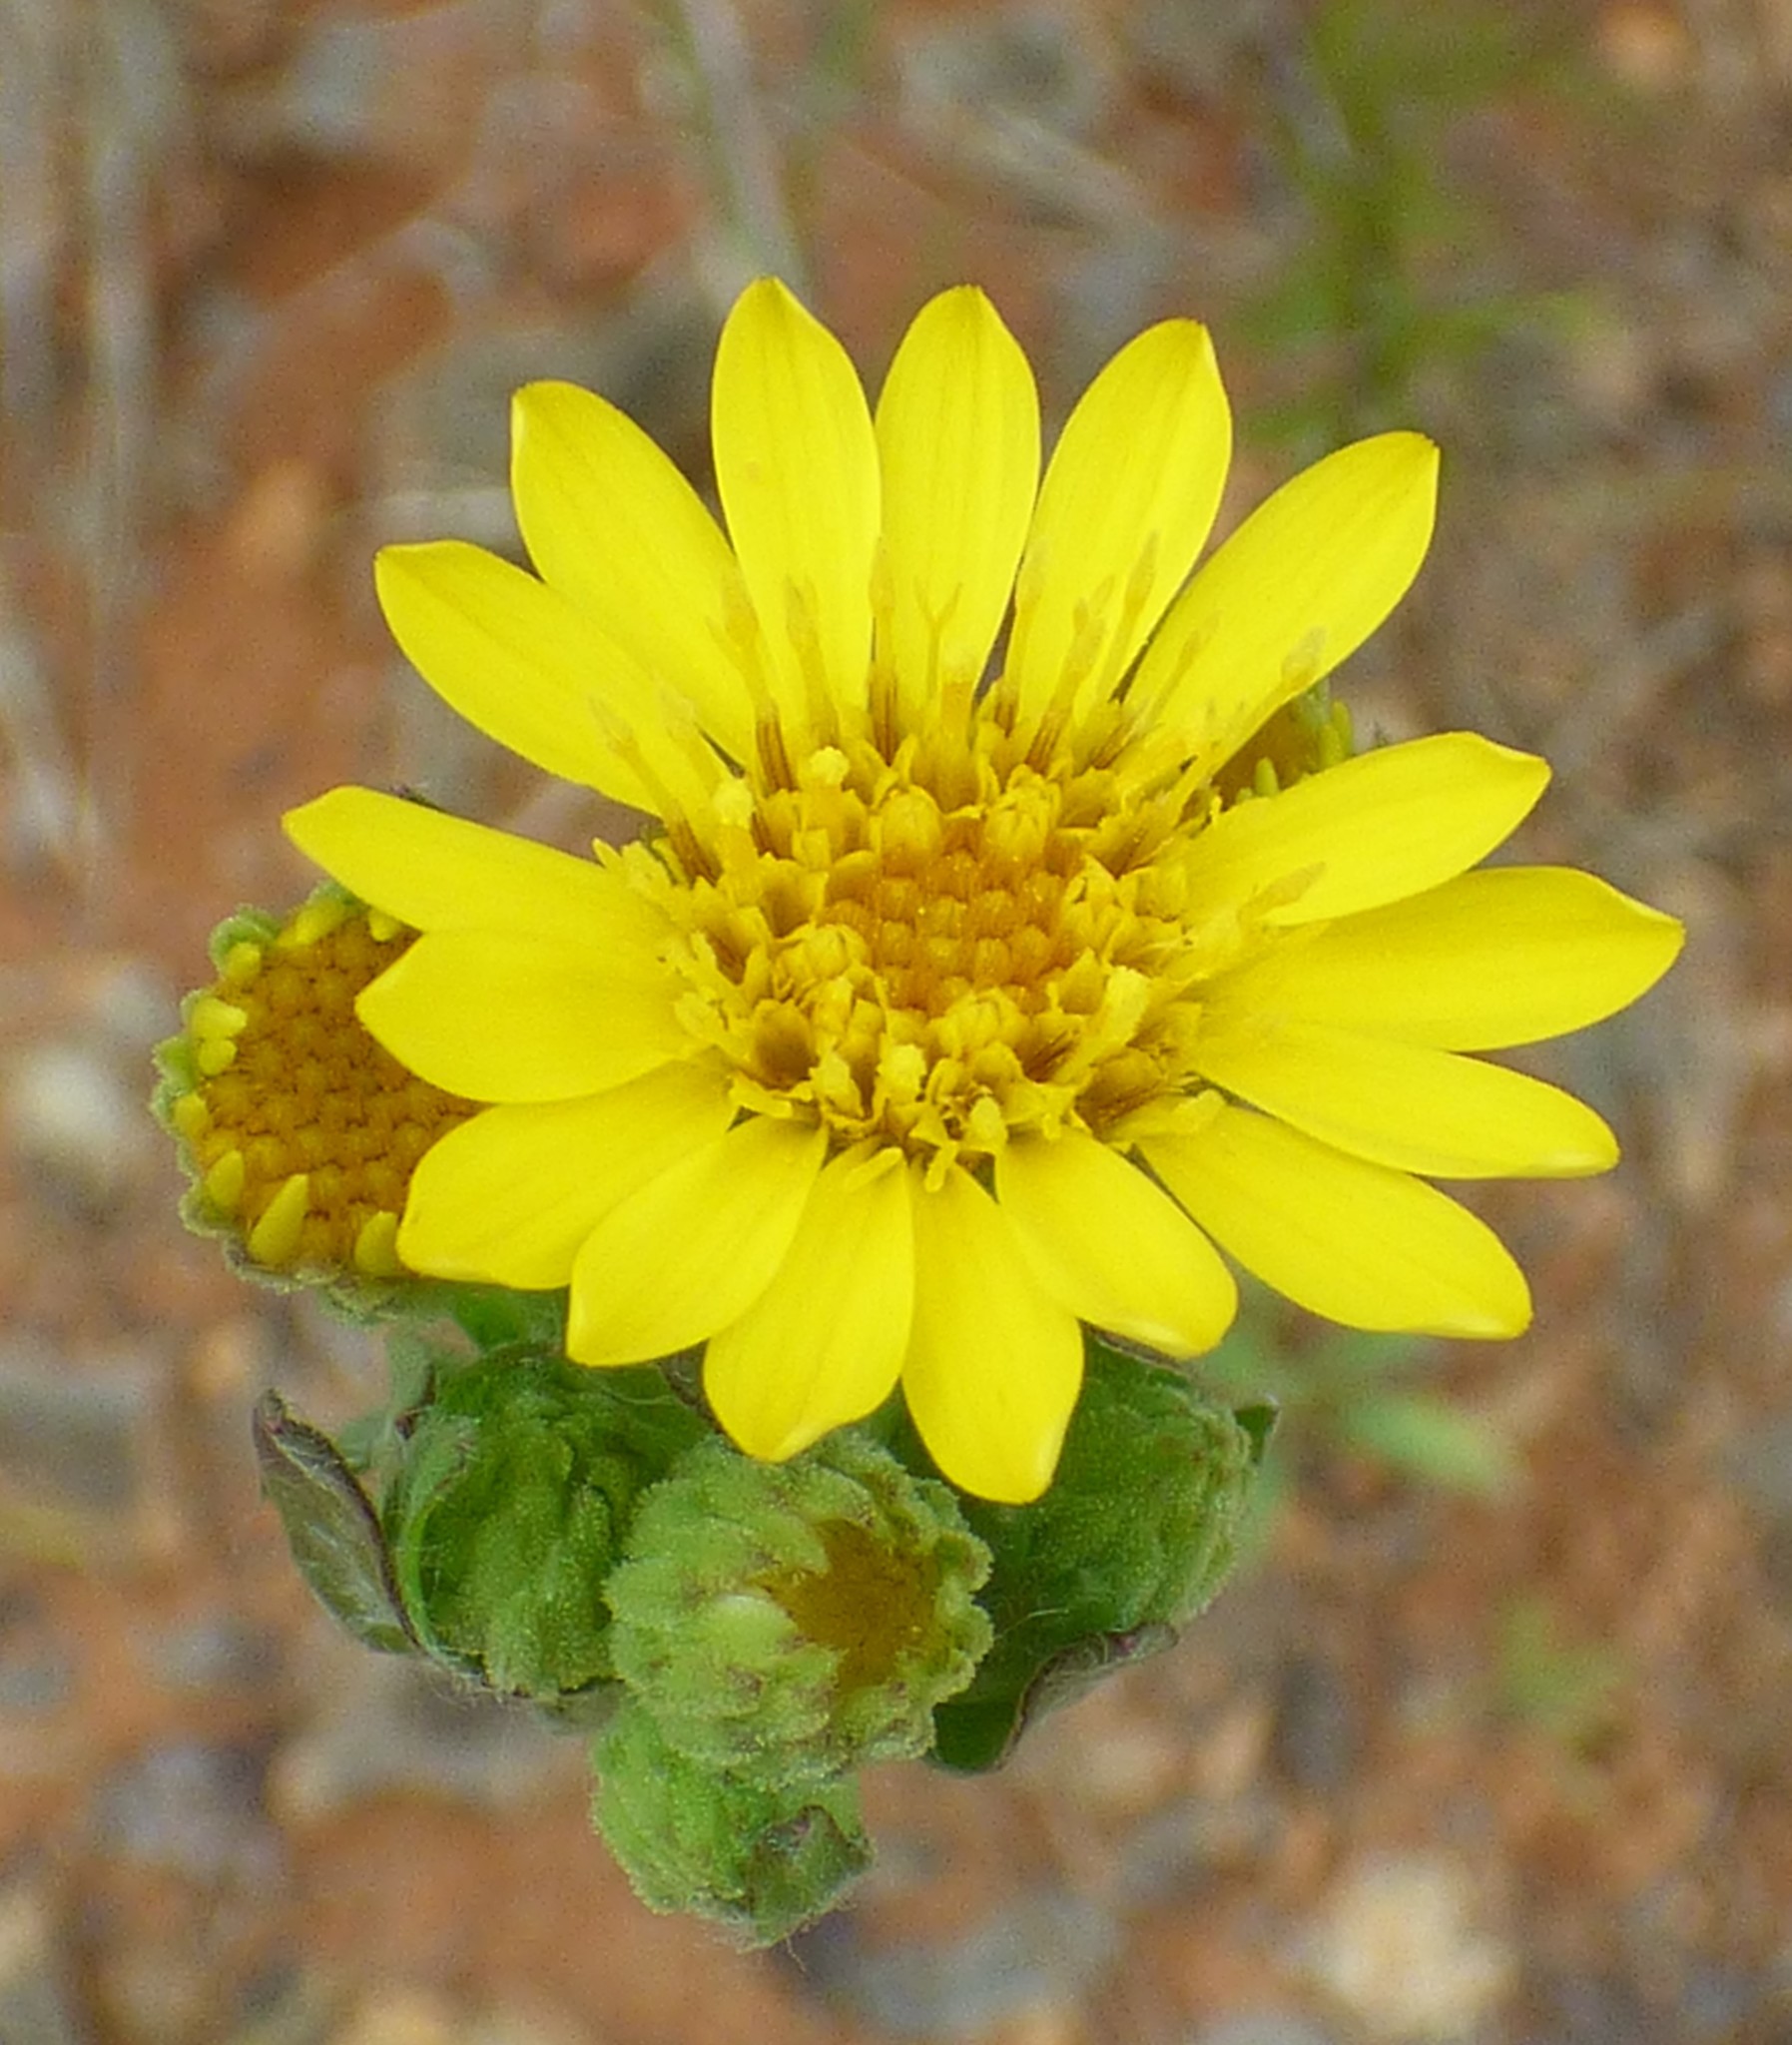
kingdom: Plantae
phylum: Tracheophyta
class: Magnoliopsida
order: Asterales
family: Asteraceae
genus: Chrysopsis
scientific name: Chrysopsis mariana
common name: Maryland golden-aster
